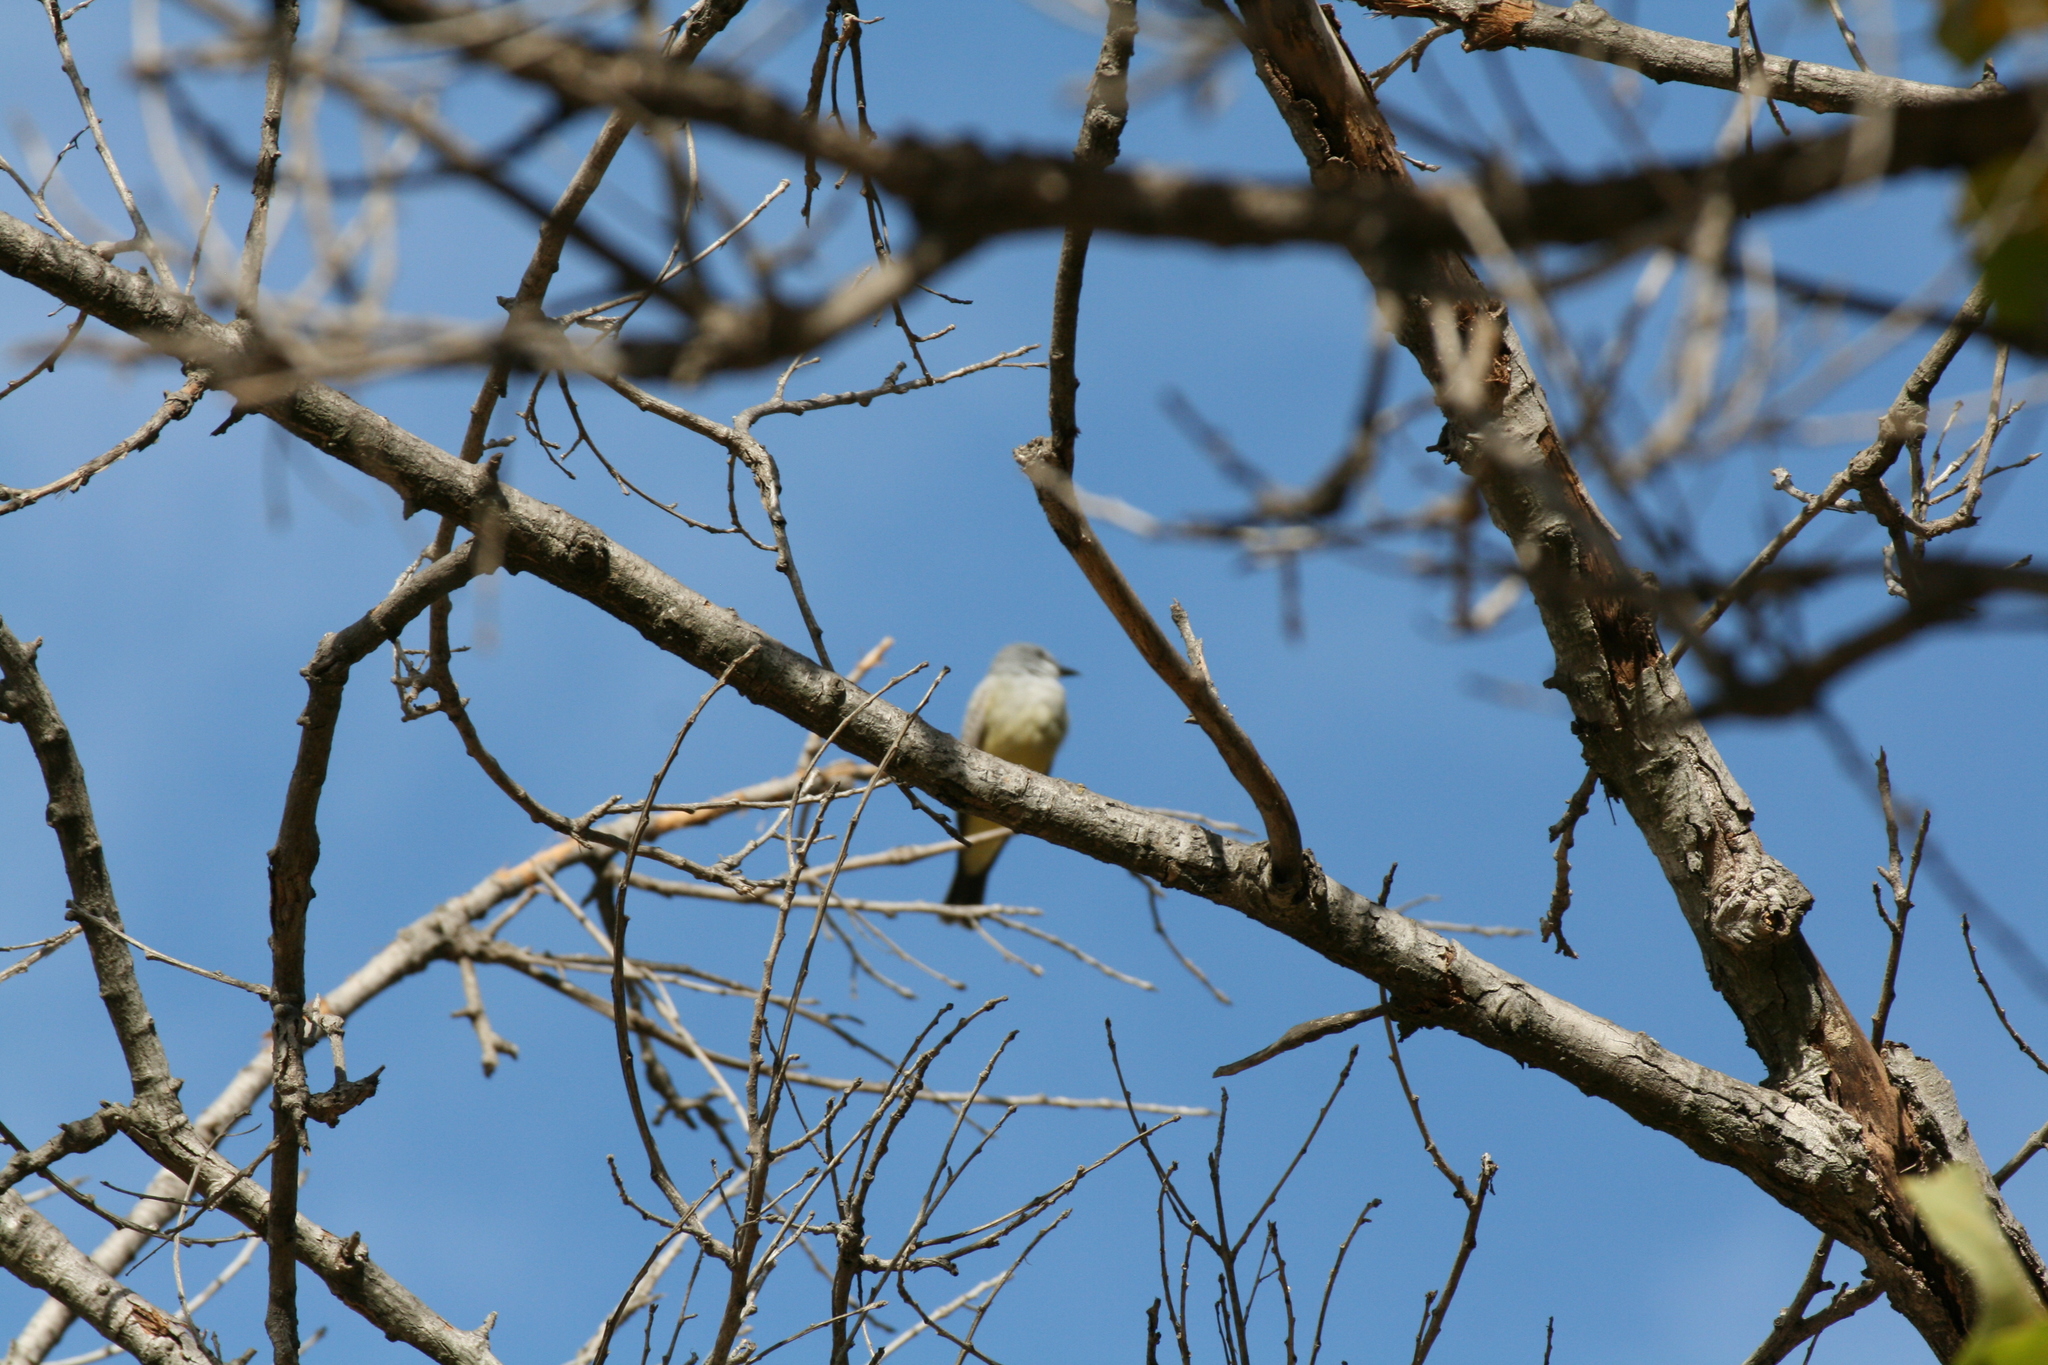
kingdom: Animalia
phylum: Chordata
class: Aves
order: Passeriformes
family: Tyrannidae
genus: Tyrannus
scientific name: Tyrannus vociferans
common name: Cassin's kingbird
